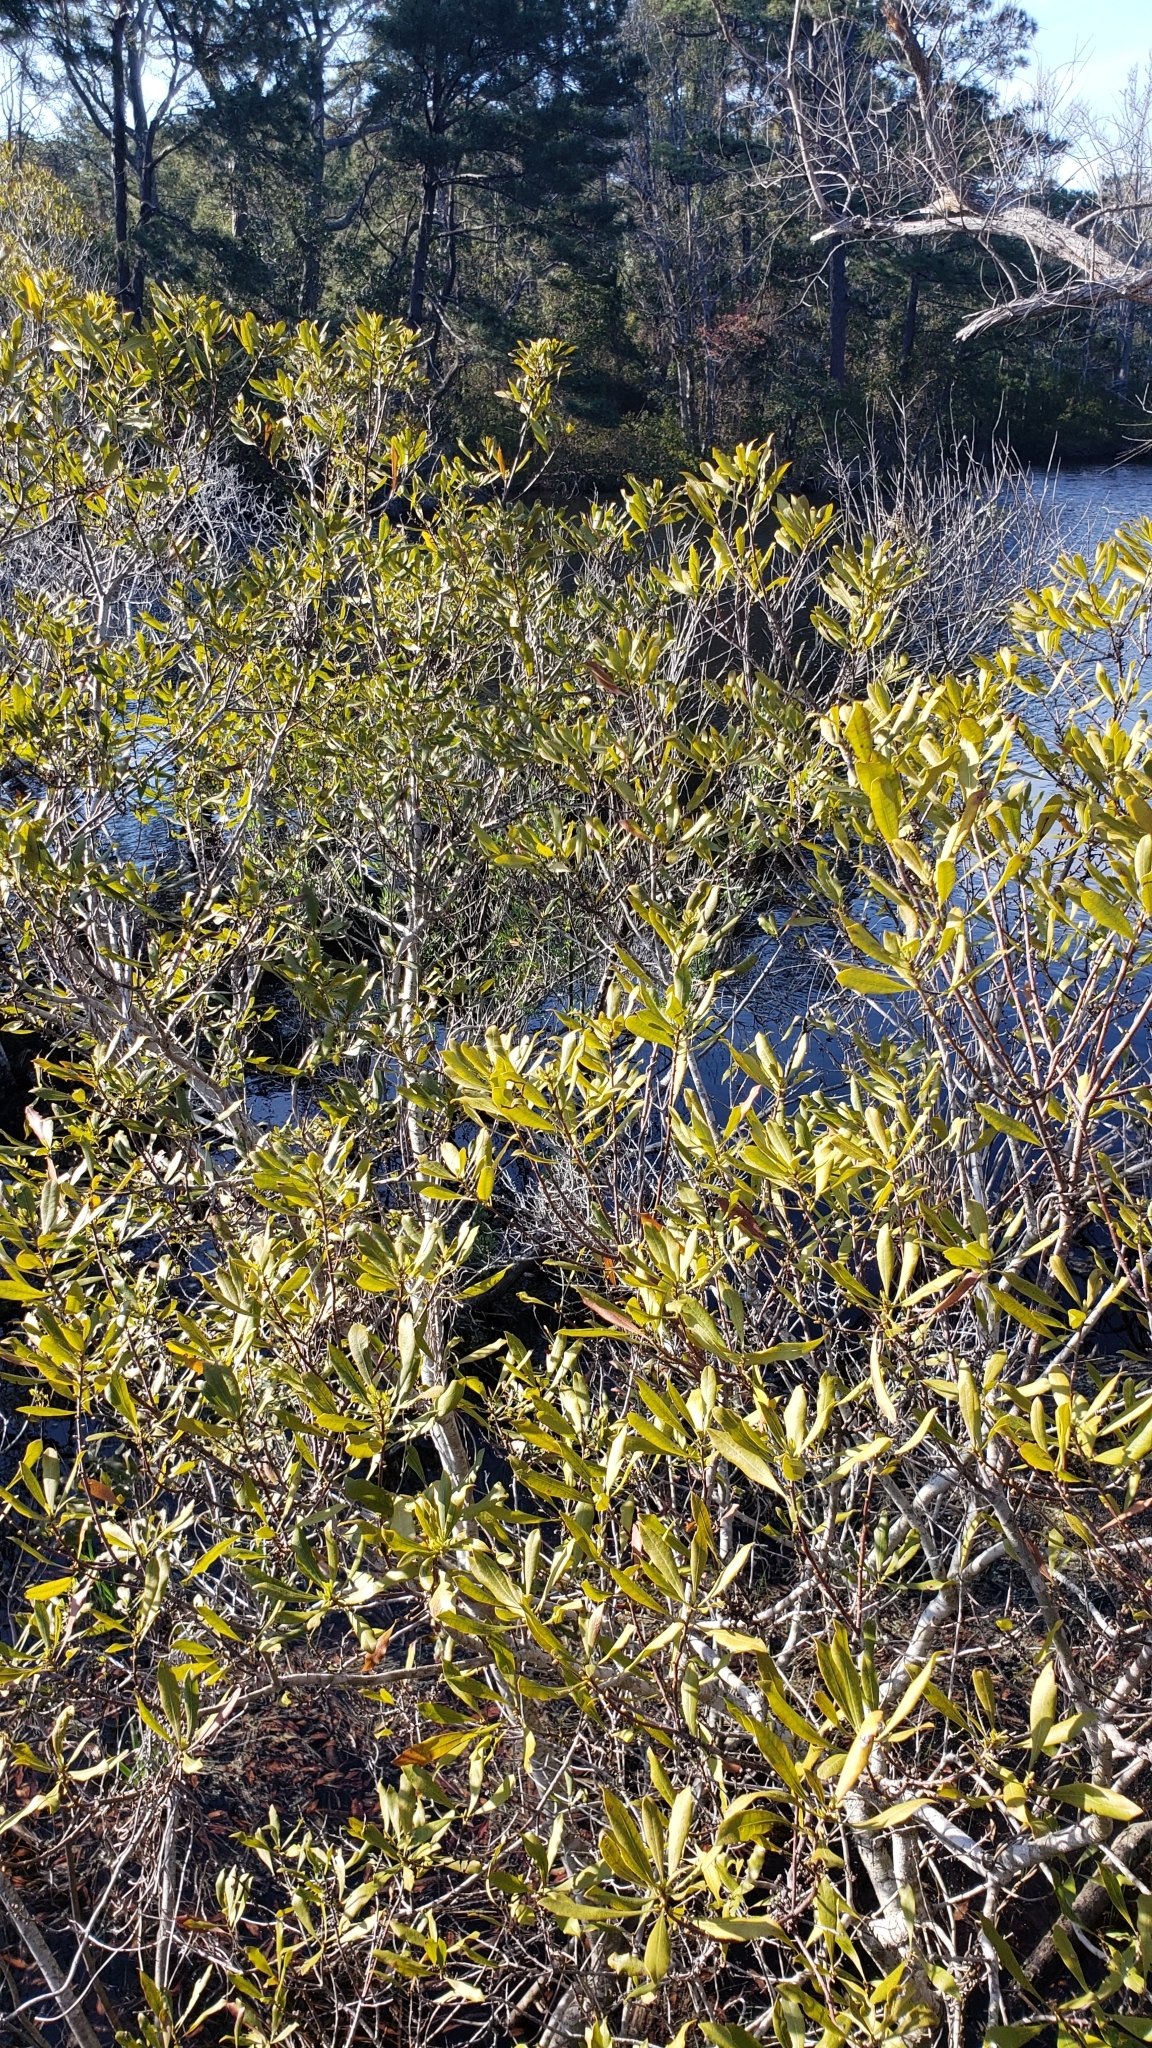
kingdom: Plantae
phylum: Tracheophyta
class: Magnoliopsida
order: Fagales
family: Myricaceae
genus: Morella
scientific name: Morella cerifera
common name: Wax myrtle
